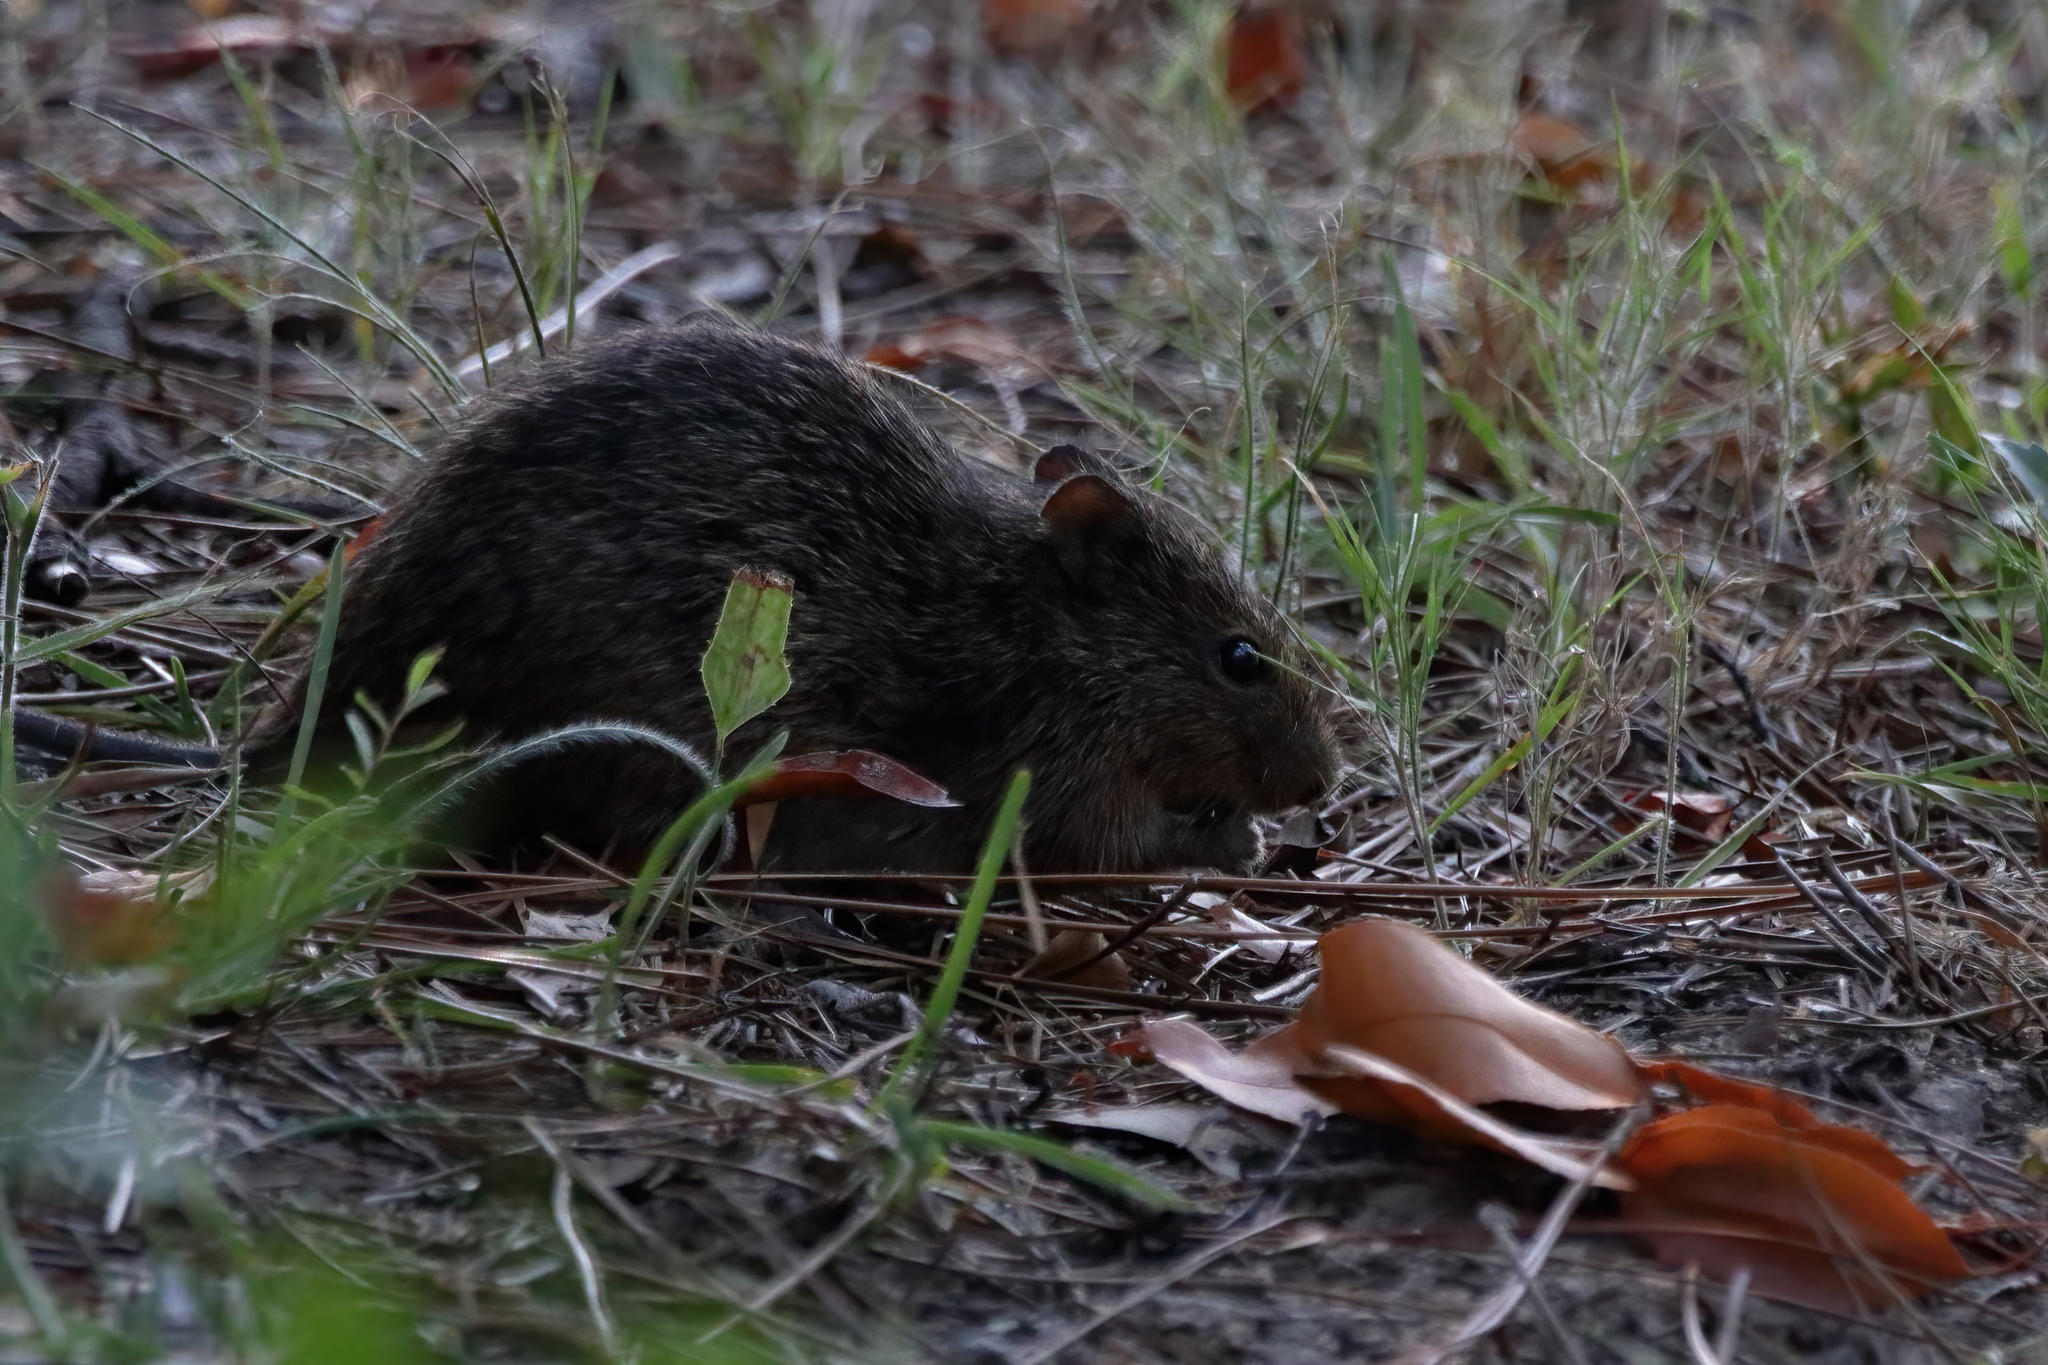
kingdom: Animalia
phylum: Chordata
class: Mammalia
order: Rodentia
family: Cricetidae
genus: Sigmodon
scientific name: Sigmodon hispidus
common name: Hispid cotton rat
